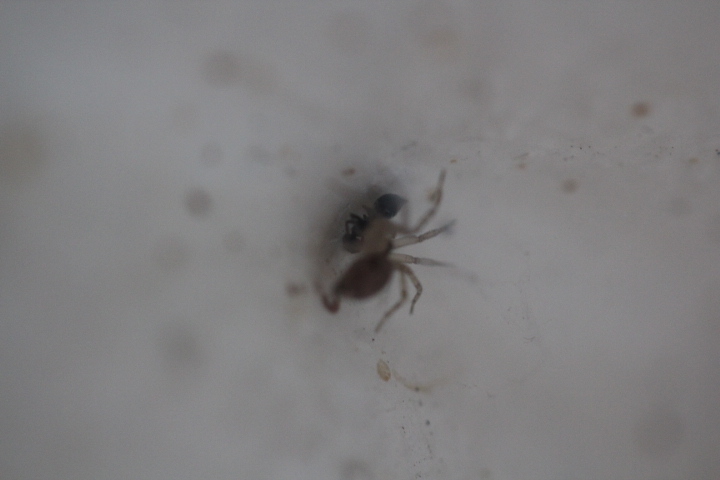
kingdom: Animalia
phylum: Arthropoda
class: Arachnida
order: Araneae
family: Oecobiidae
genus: Oecobius
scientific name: Oecobius navus
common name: Flatmesh weaver
